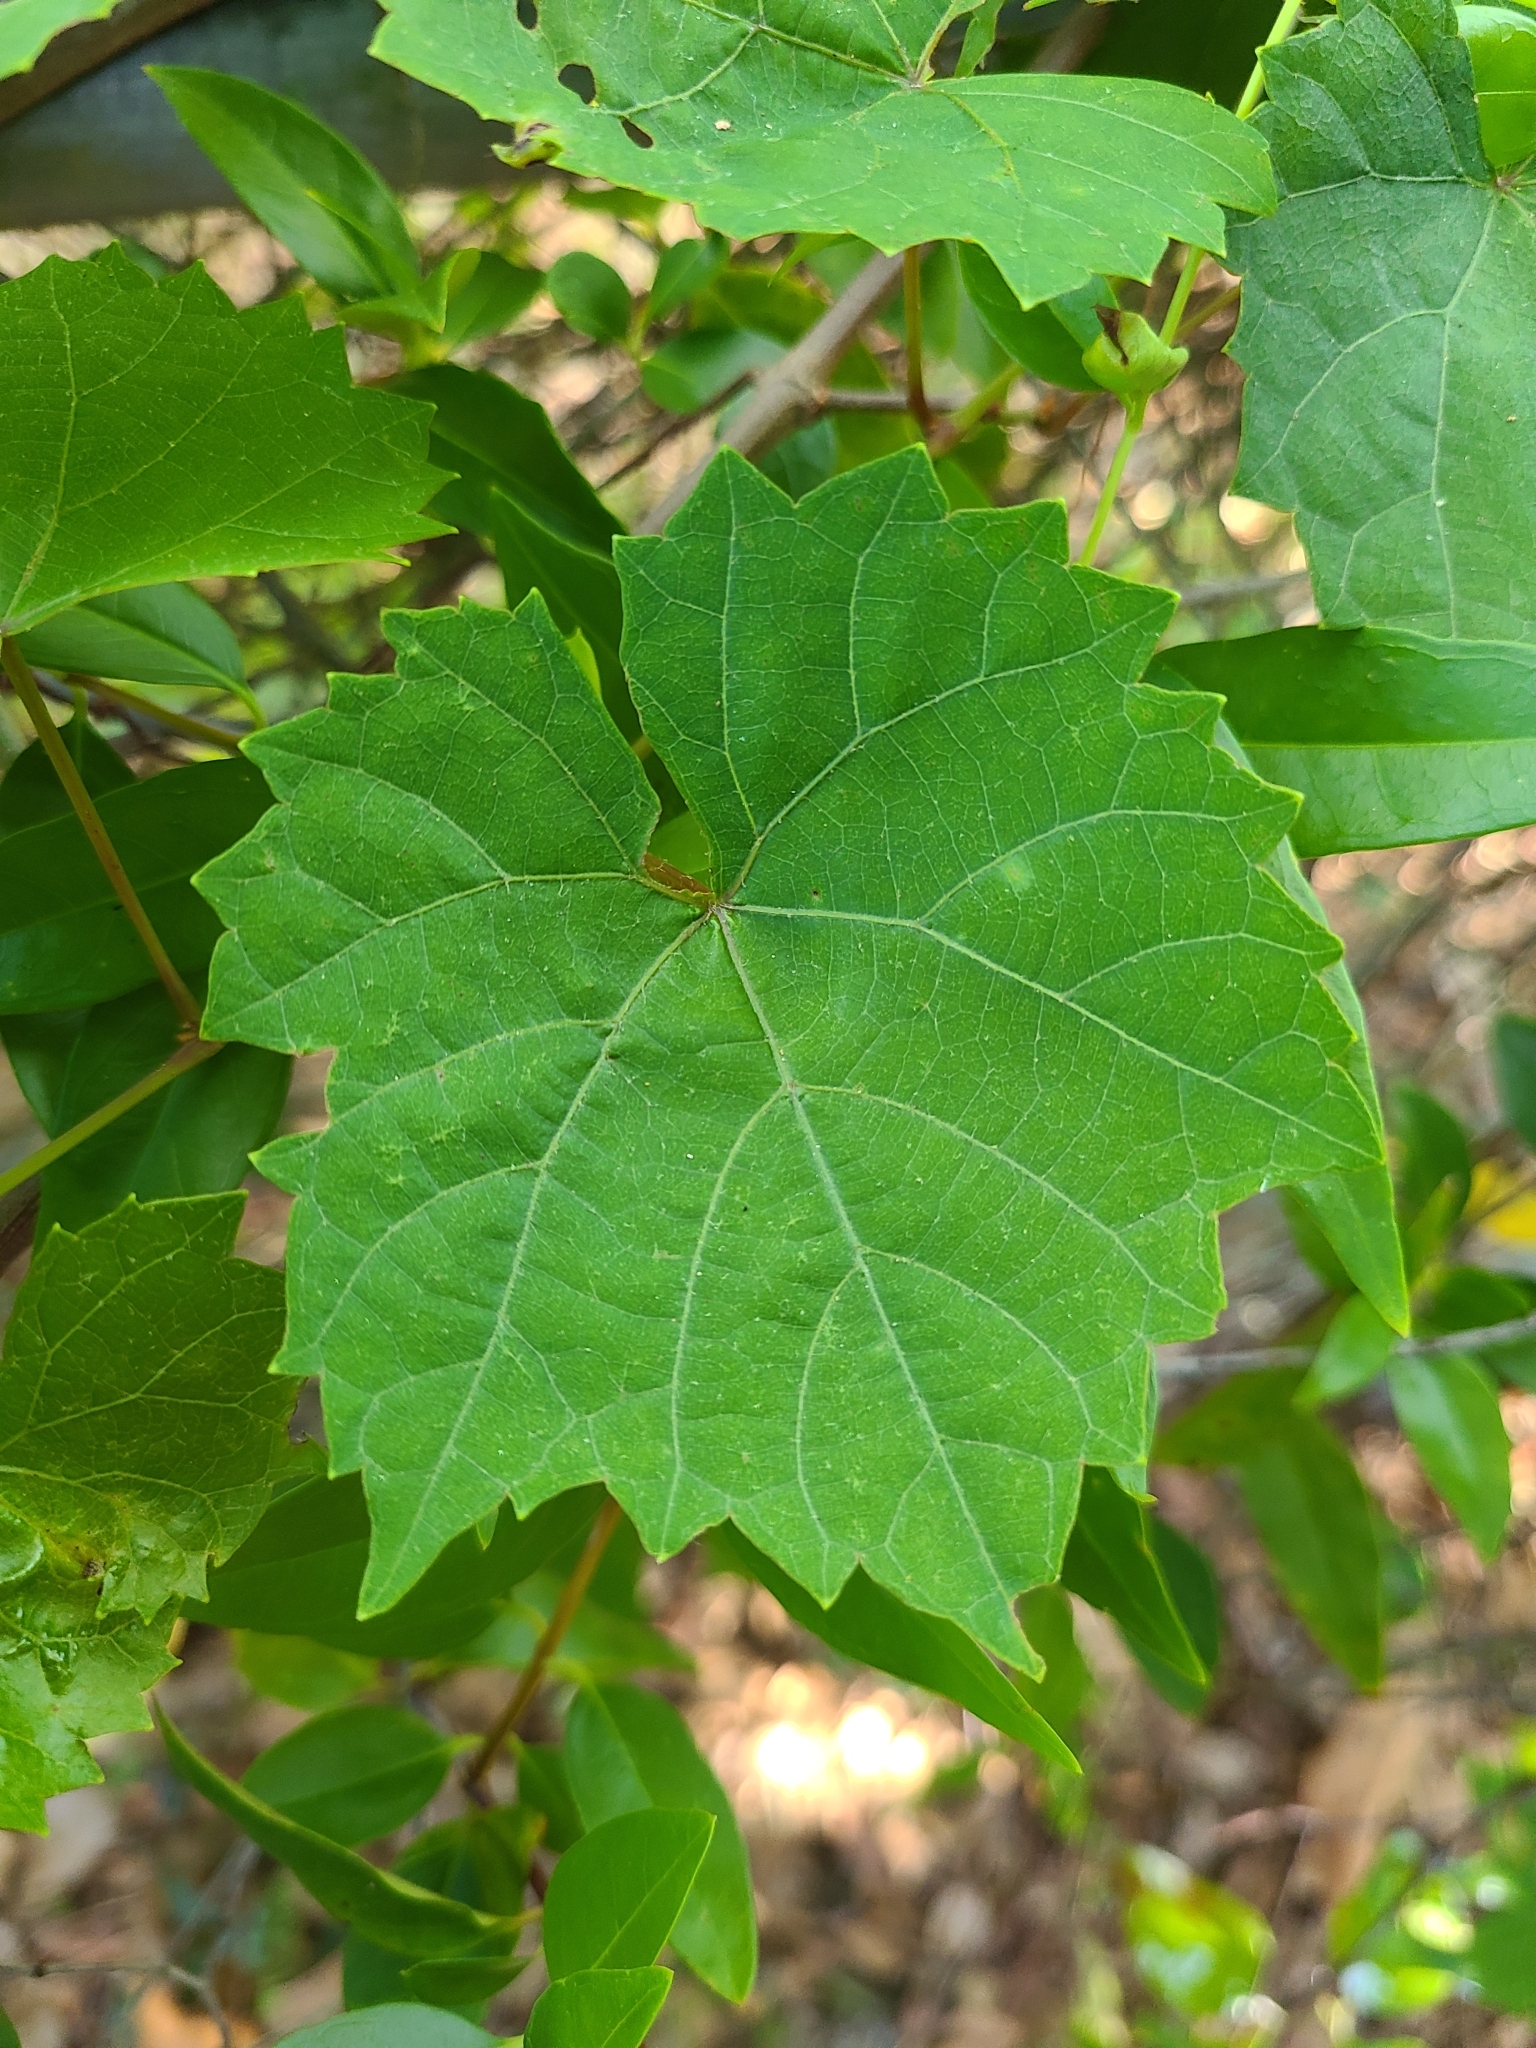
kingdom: Plantae
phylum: Tracheophyta
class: Magnoliopsida
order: Vitales
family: Vitaceae
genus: Vitis
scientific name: Vitis rotundifolia
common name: Muscadine grape
